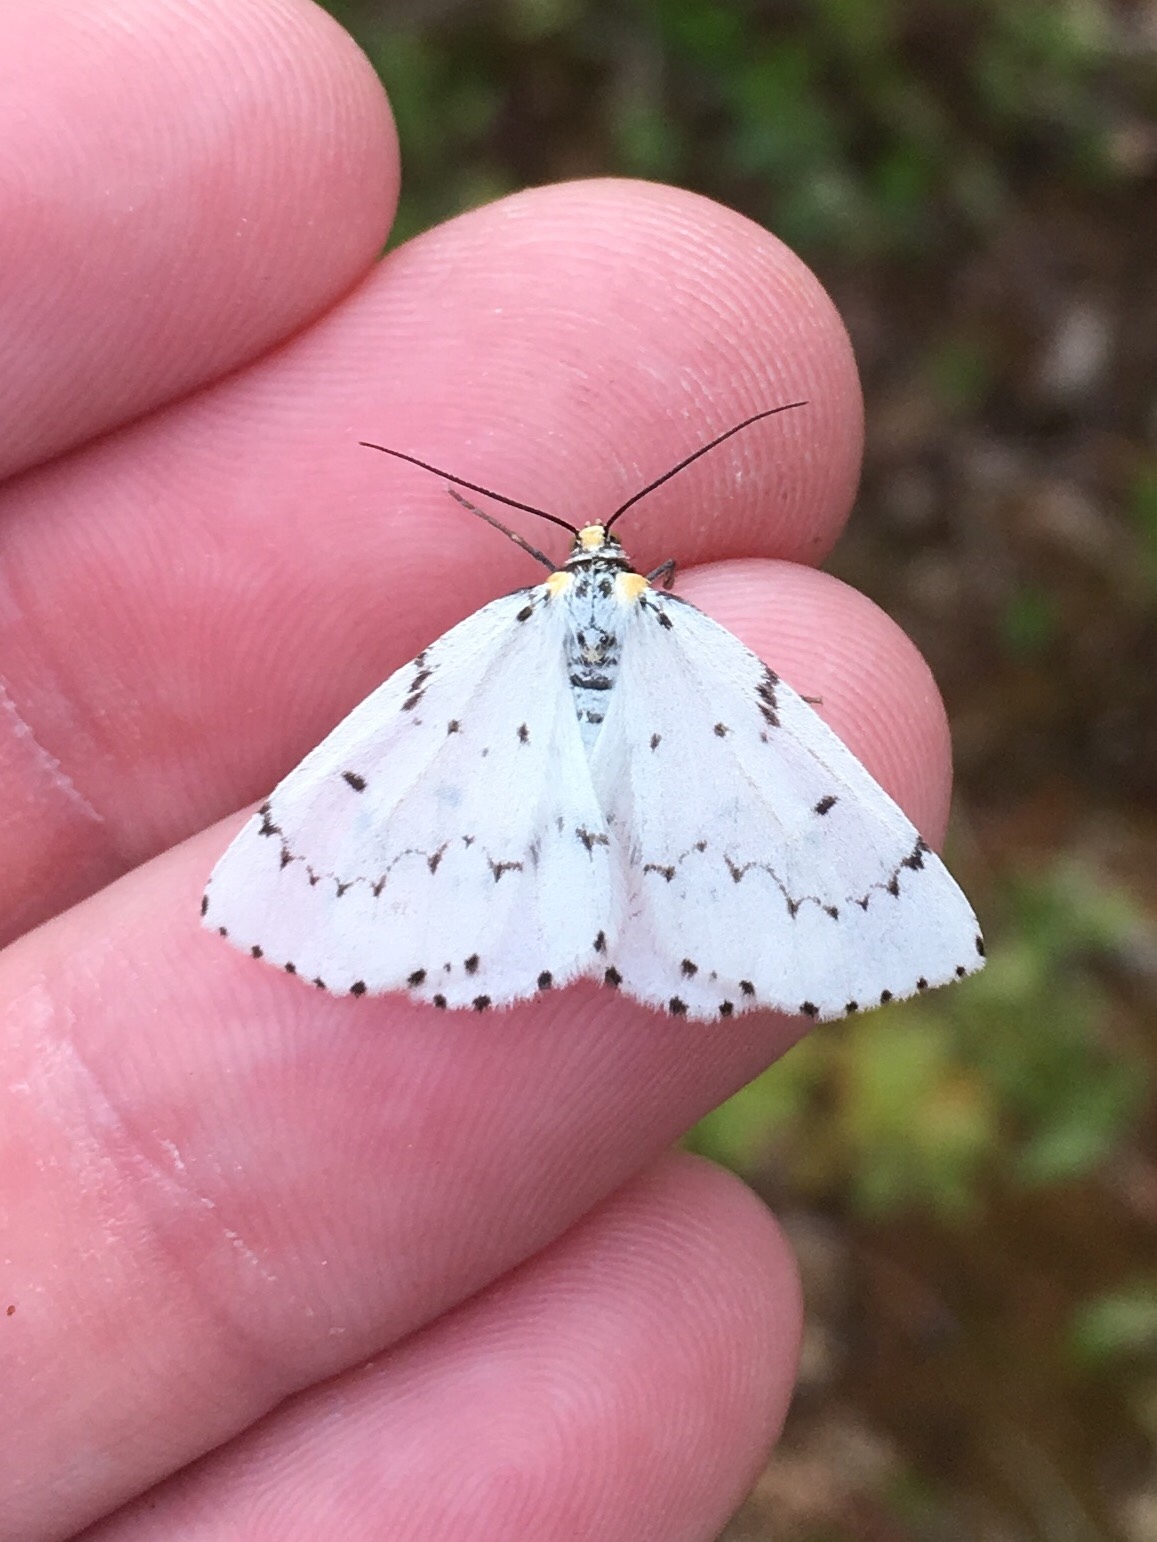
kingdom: Animalia
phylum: Arthropoda
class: Insecta
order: Lepidoptera
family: Geometridae
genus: Cingilia
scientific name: Cingilia catenaria
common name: Chain-dotted geometer
